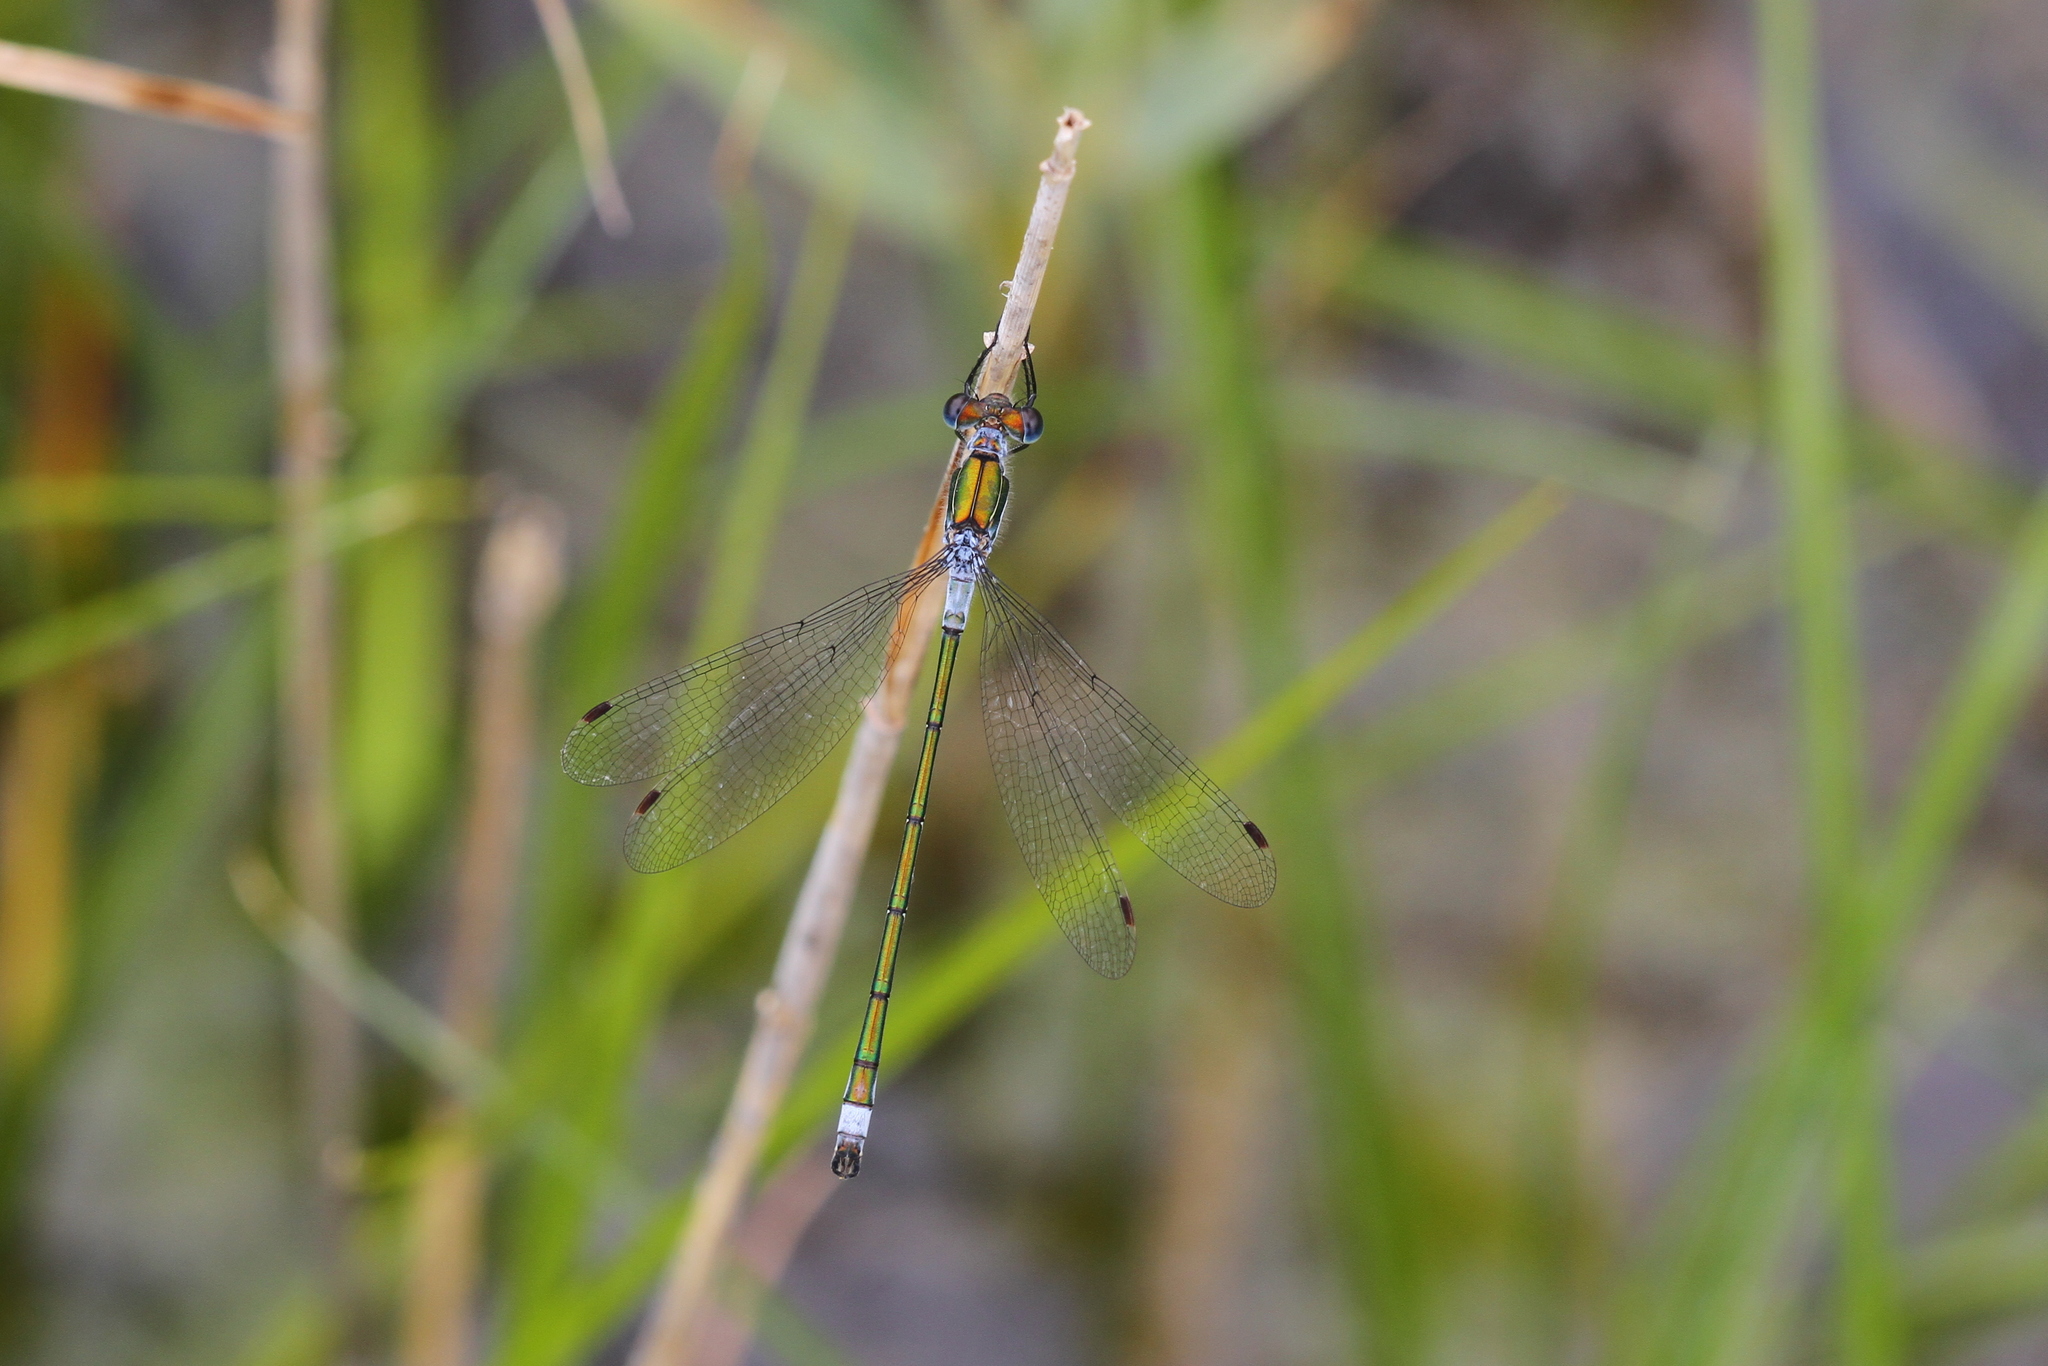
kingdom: Animalia
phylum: Arthropoda
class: Insecta
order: Odonata
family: Lestidae
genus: Lestes
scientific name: Lestes sponsa
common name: Common spreadwing
